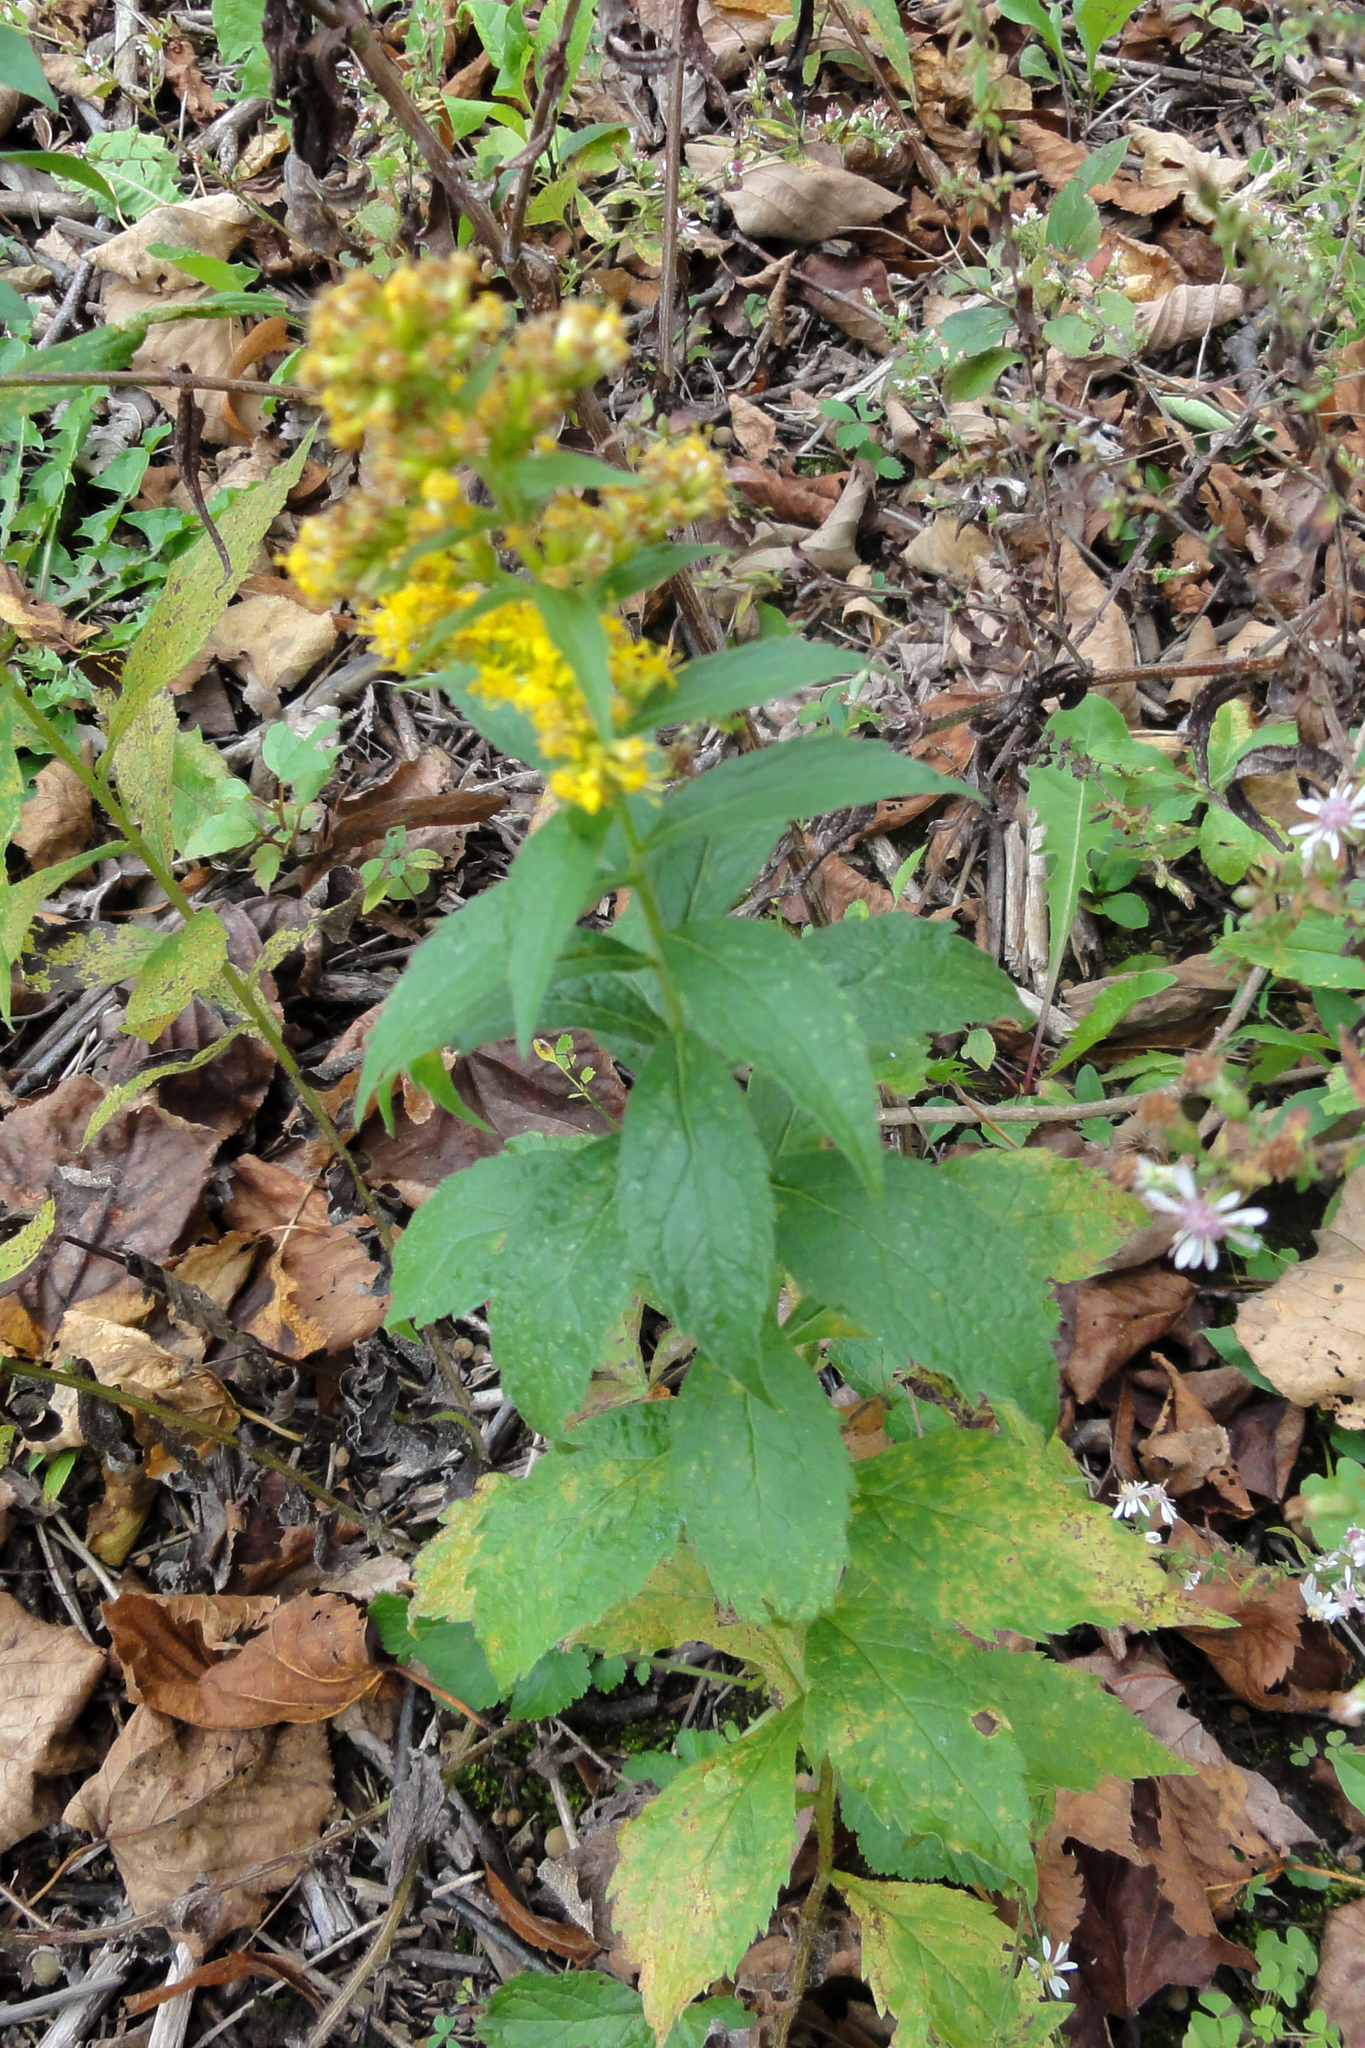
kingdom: Plantae
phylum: Tracheophyta
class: Magnoliopsida
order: Asterales
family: Asteraceae
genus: Solidago
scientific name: Solidago rugosa
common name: Rough-stemmed goldenrod
